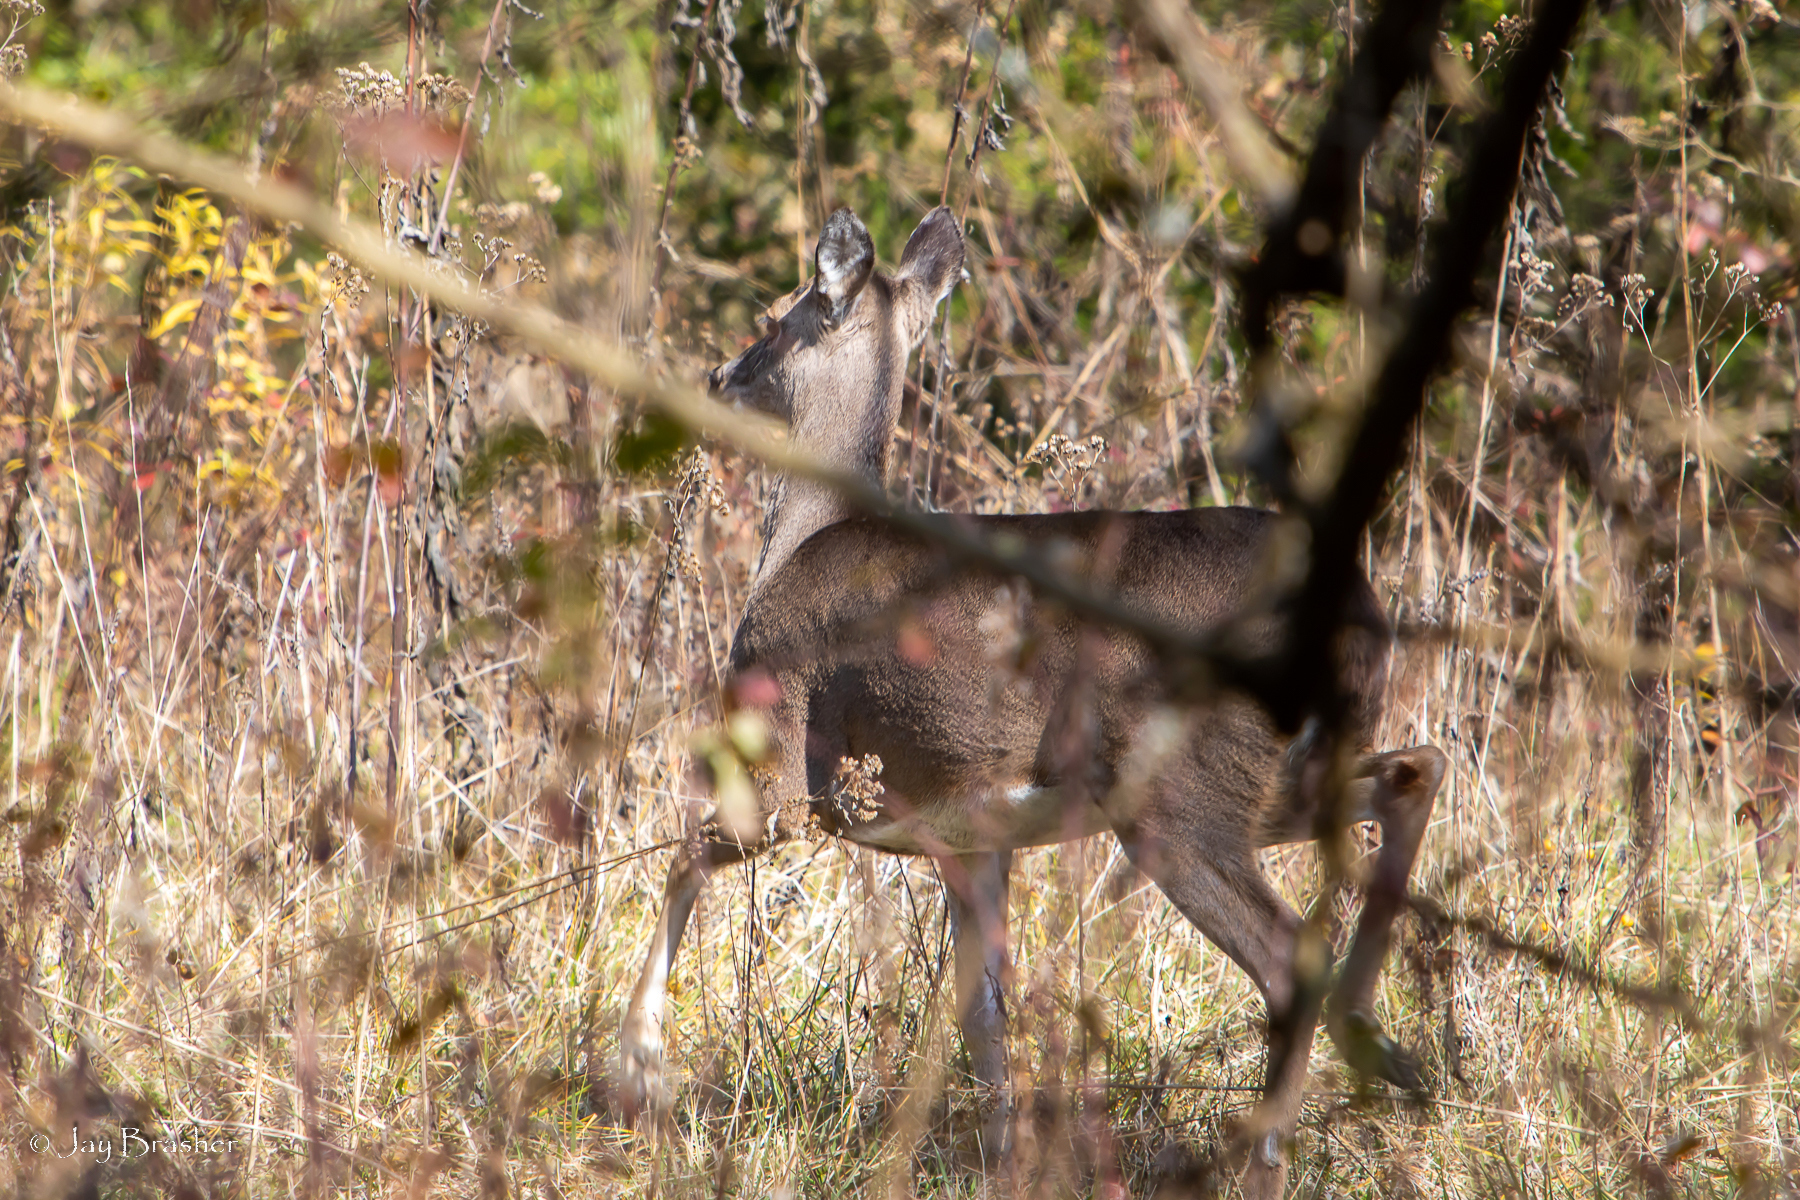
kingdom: Animalia
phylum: Chordata
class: Mammalia
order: Artiodactyla
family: Cervidae
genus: Odocoileus
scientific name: Odocoileus virginianus
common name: White-tailed deer
